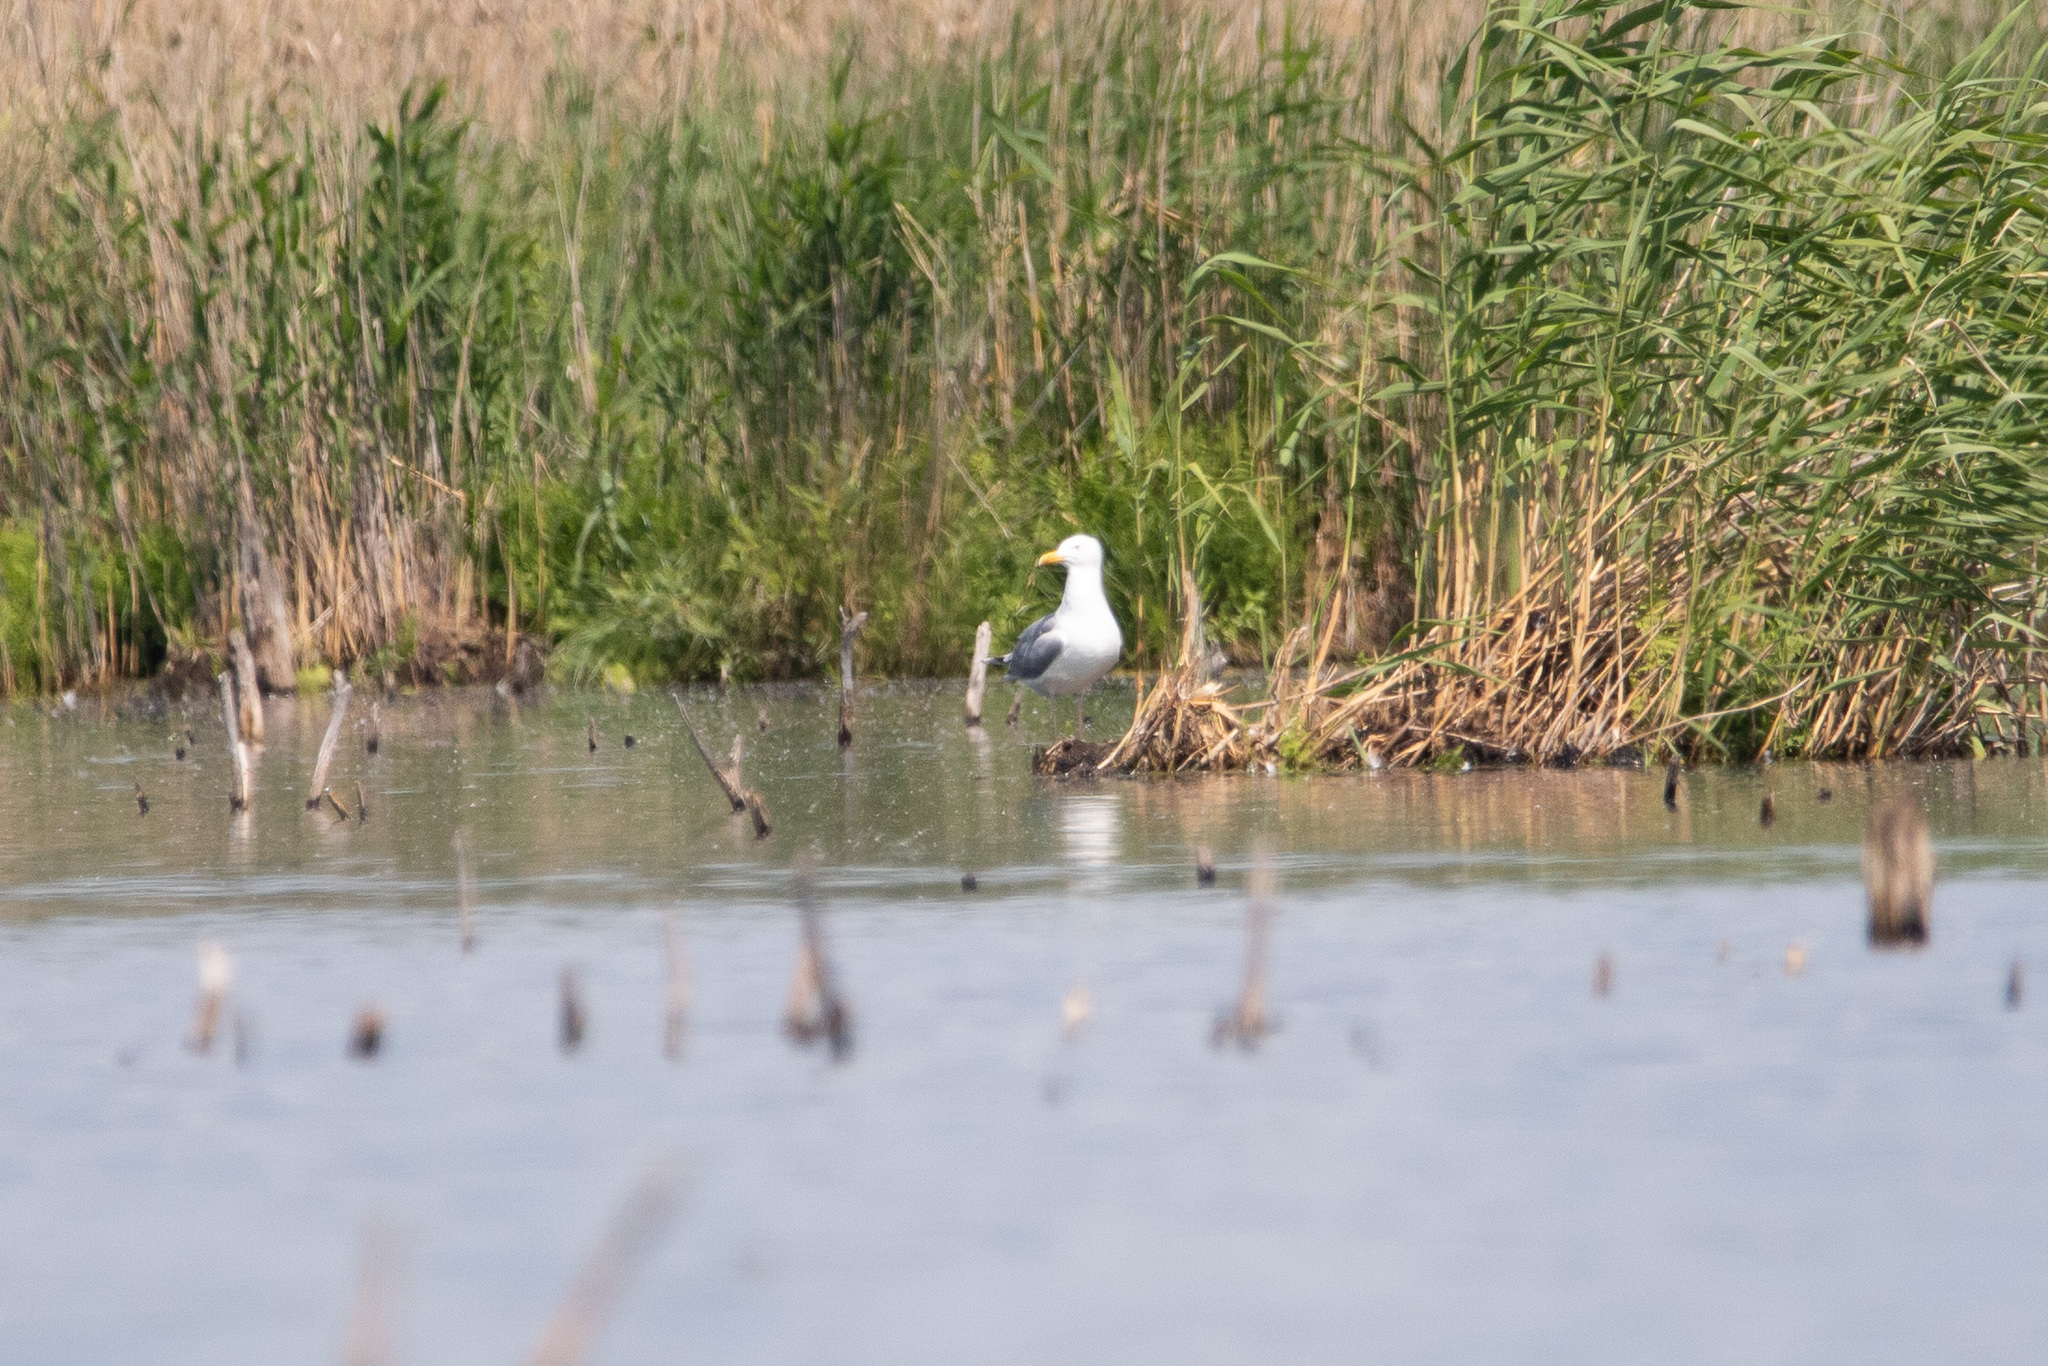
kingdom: Animalia
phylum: Chordata
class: Aves
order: Charadriiformes
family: Laridae
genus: Larus
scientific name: Larus argentatus
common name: Herring gull
